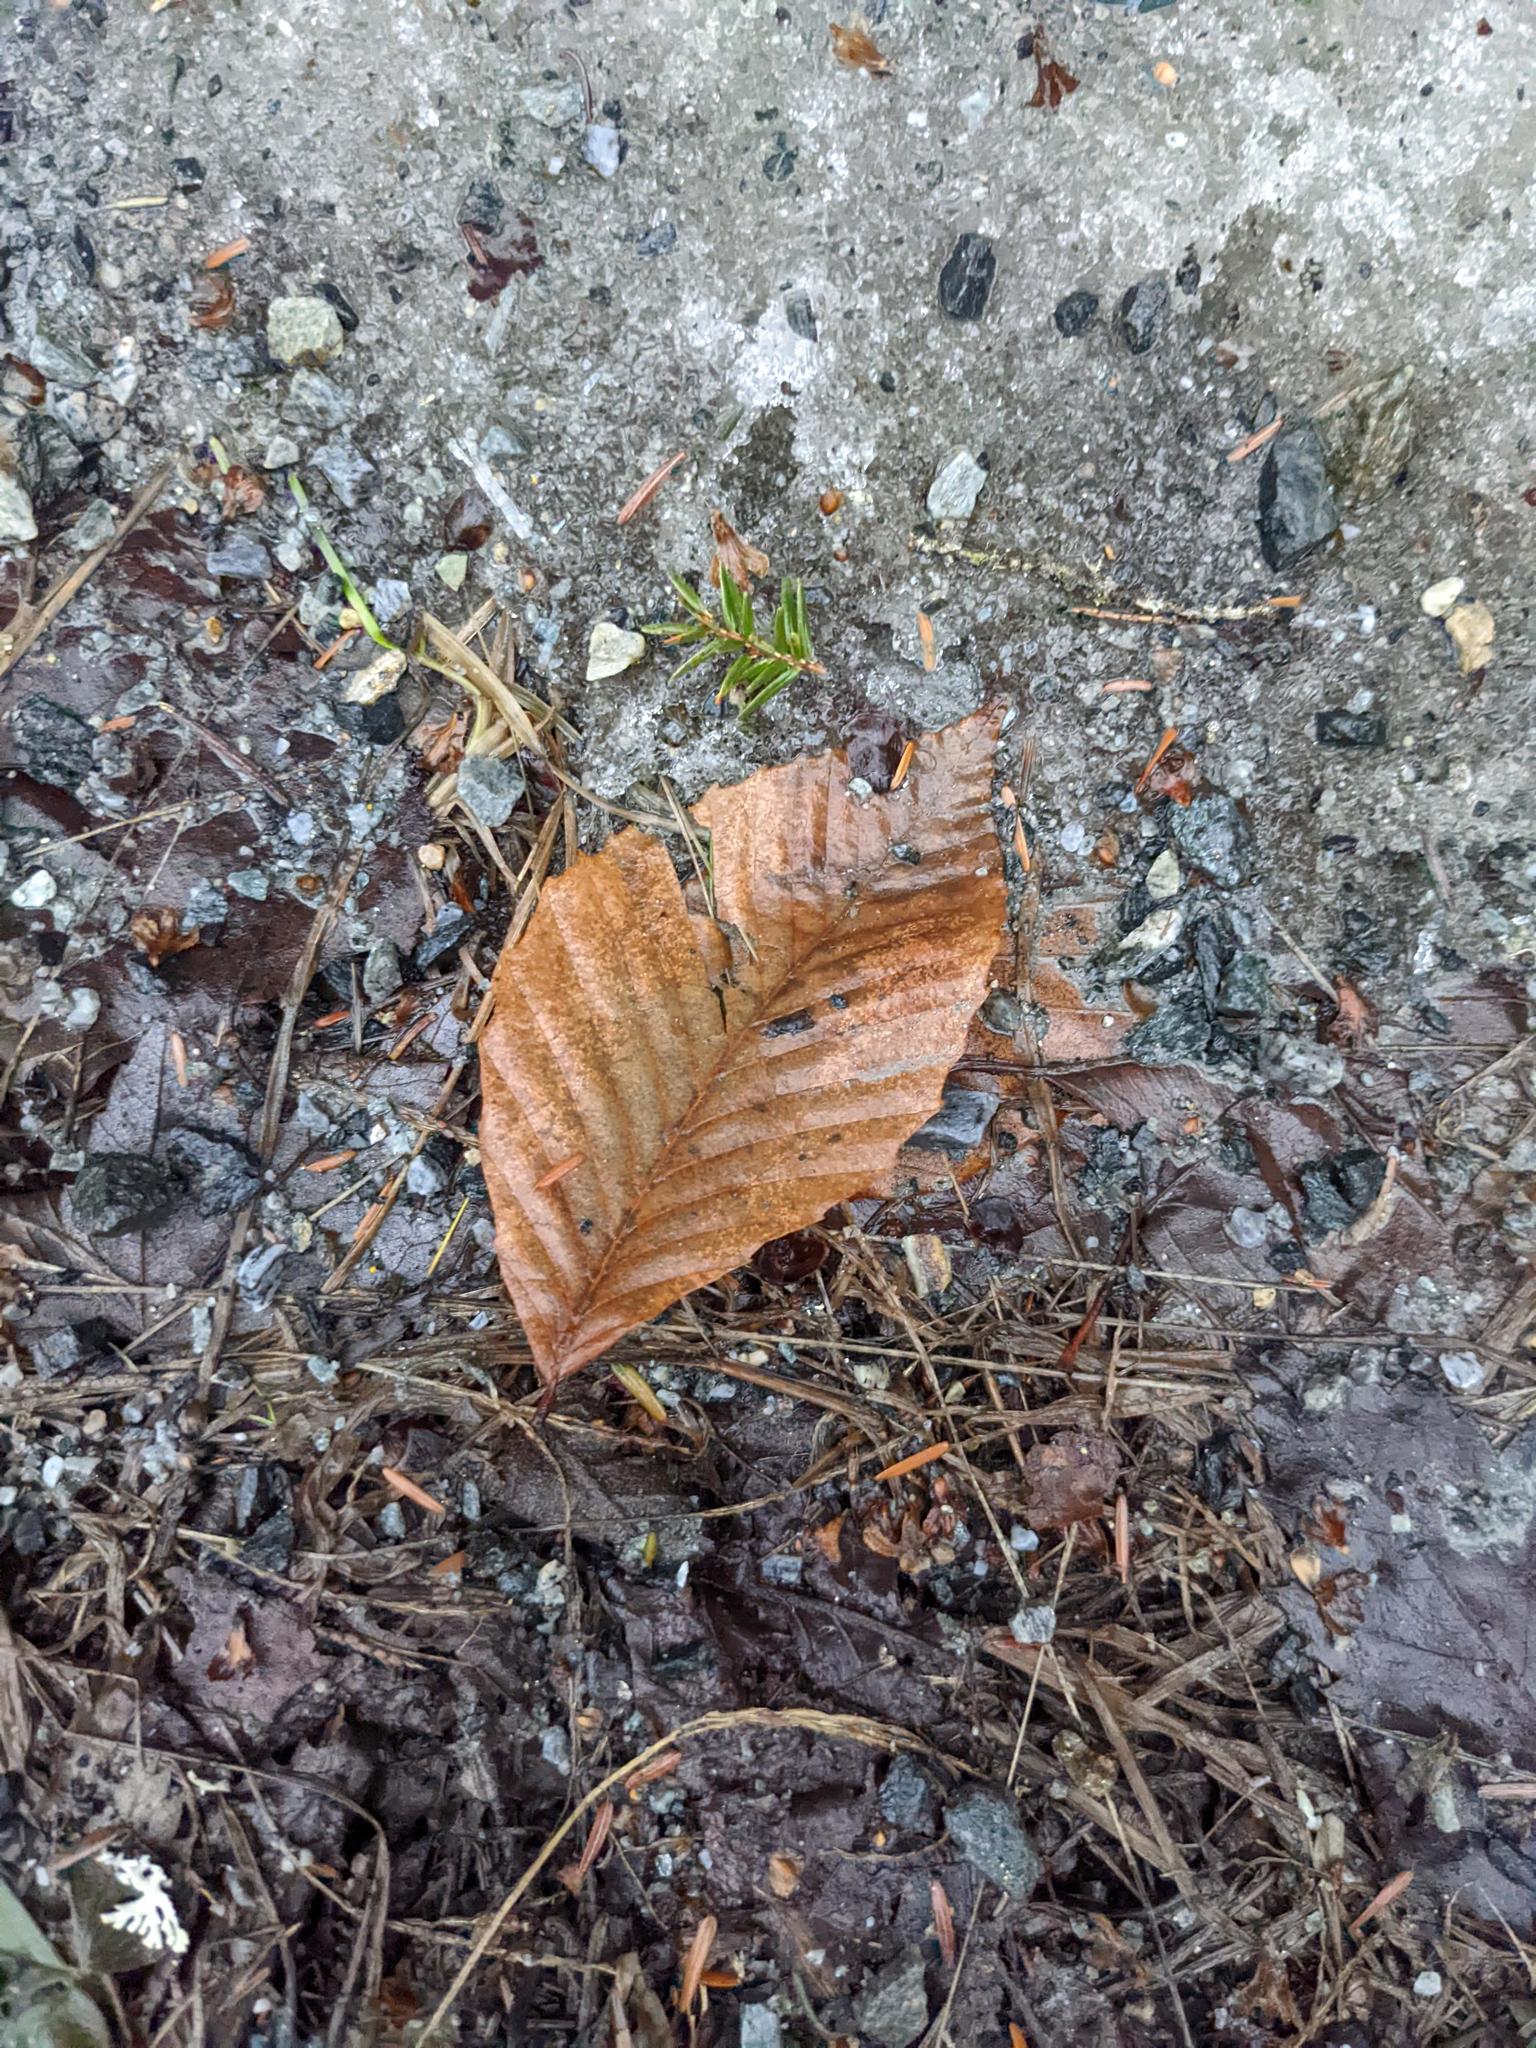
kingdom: Plantae
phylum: Tracheophyta
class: Magnoliopsida
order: Fagales
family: Fagaceae
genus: Fagus
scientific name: Fagus grandifolia
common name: American beech
